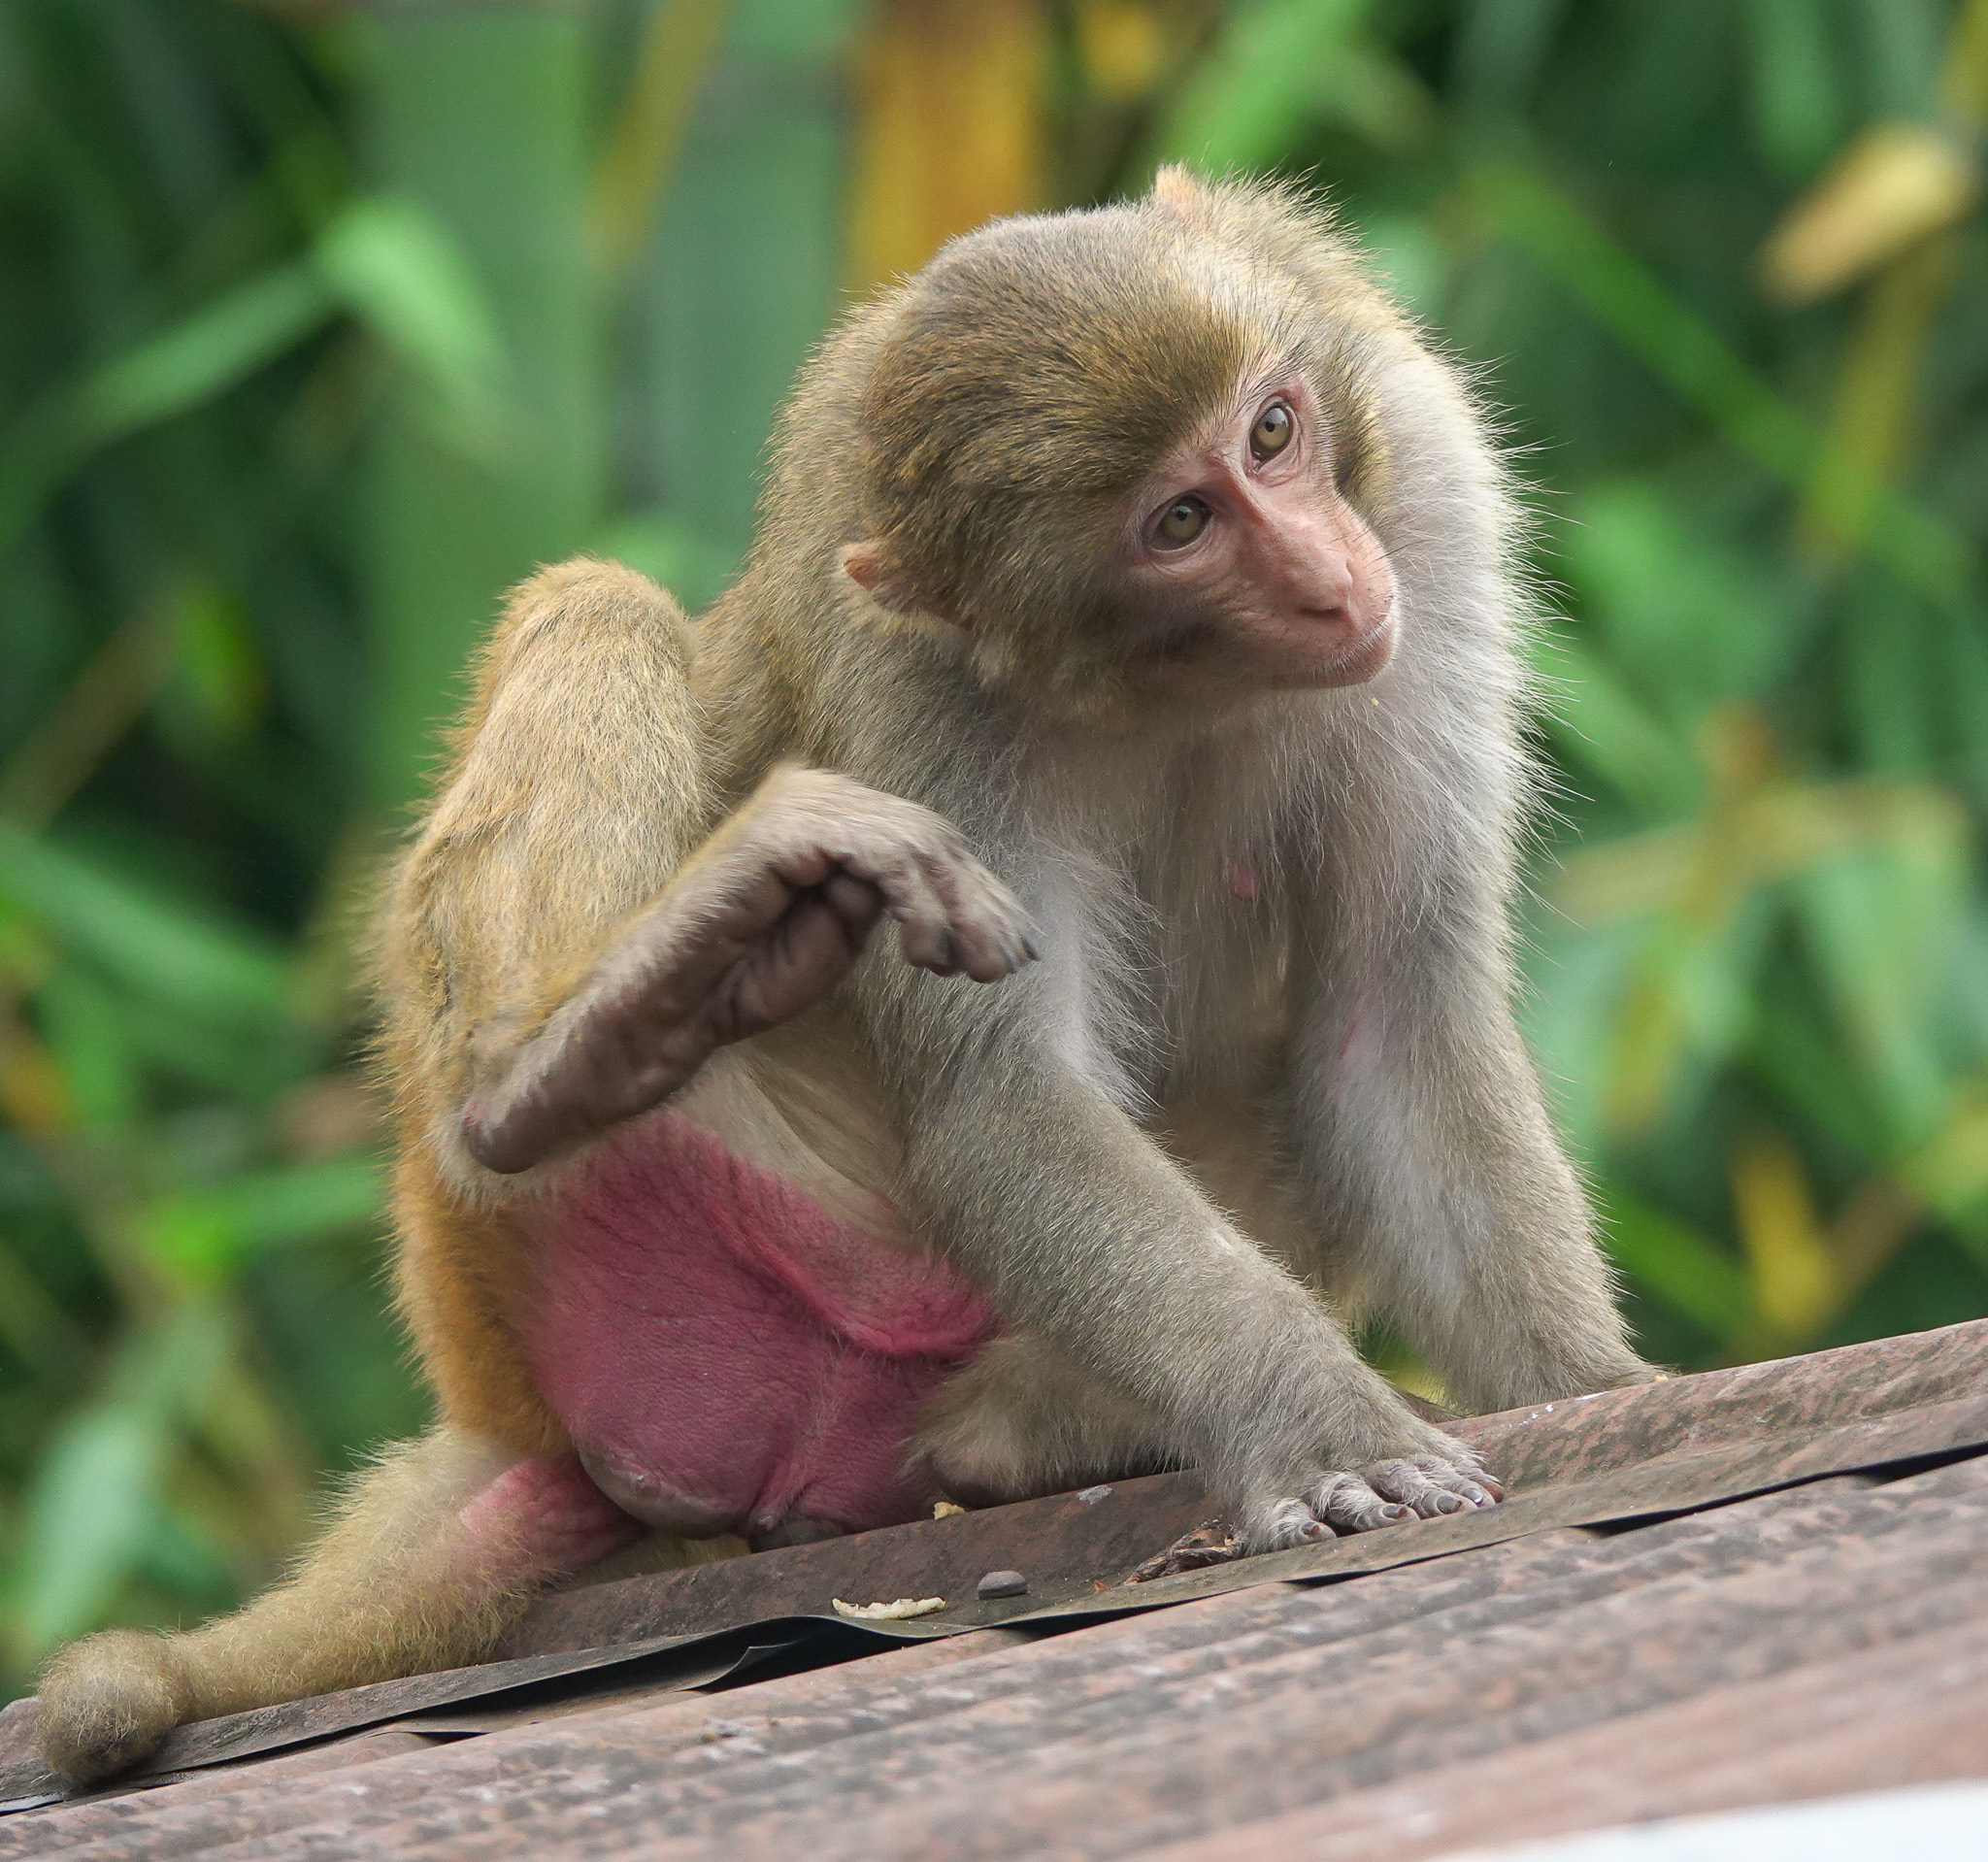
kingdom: Animalia
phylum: Chordata
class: Mammalia
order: Primates
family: Cercopithecidae
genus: Macaca
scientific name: Macaca mulatta
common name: Rhesus monkey
